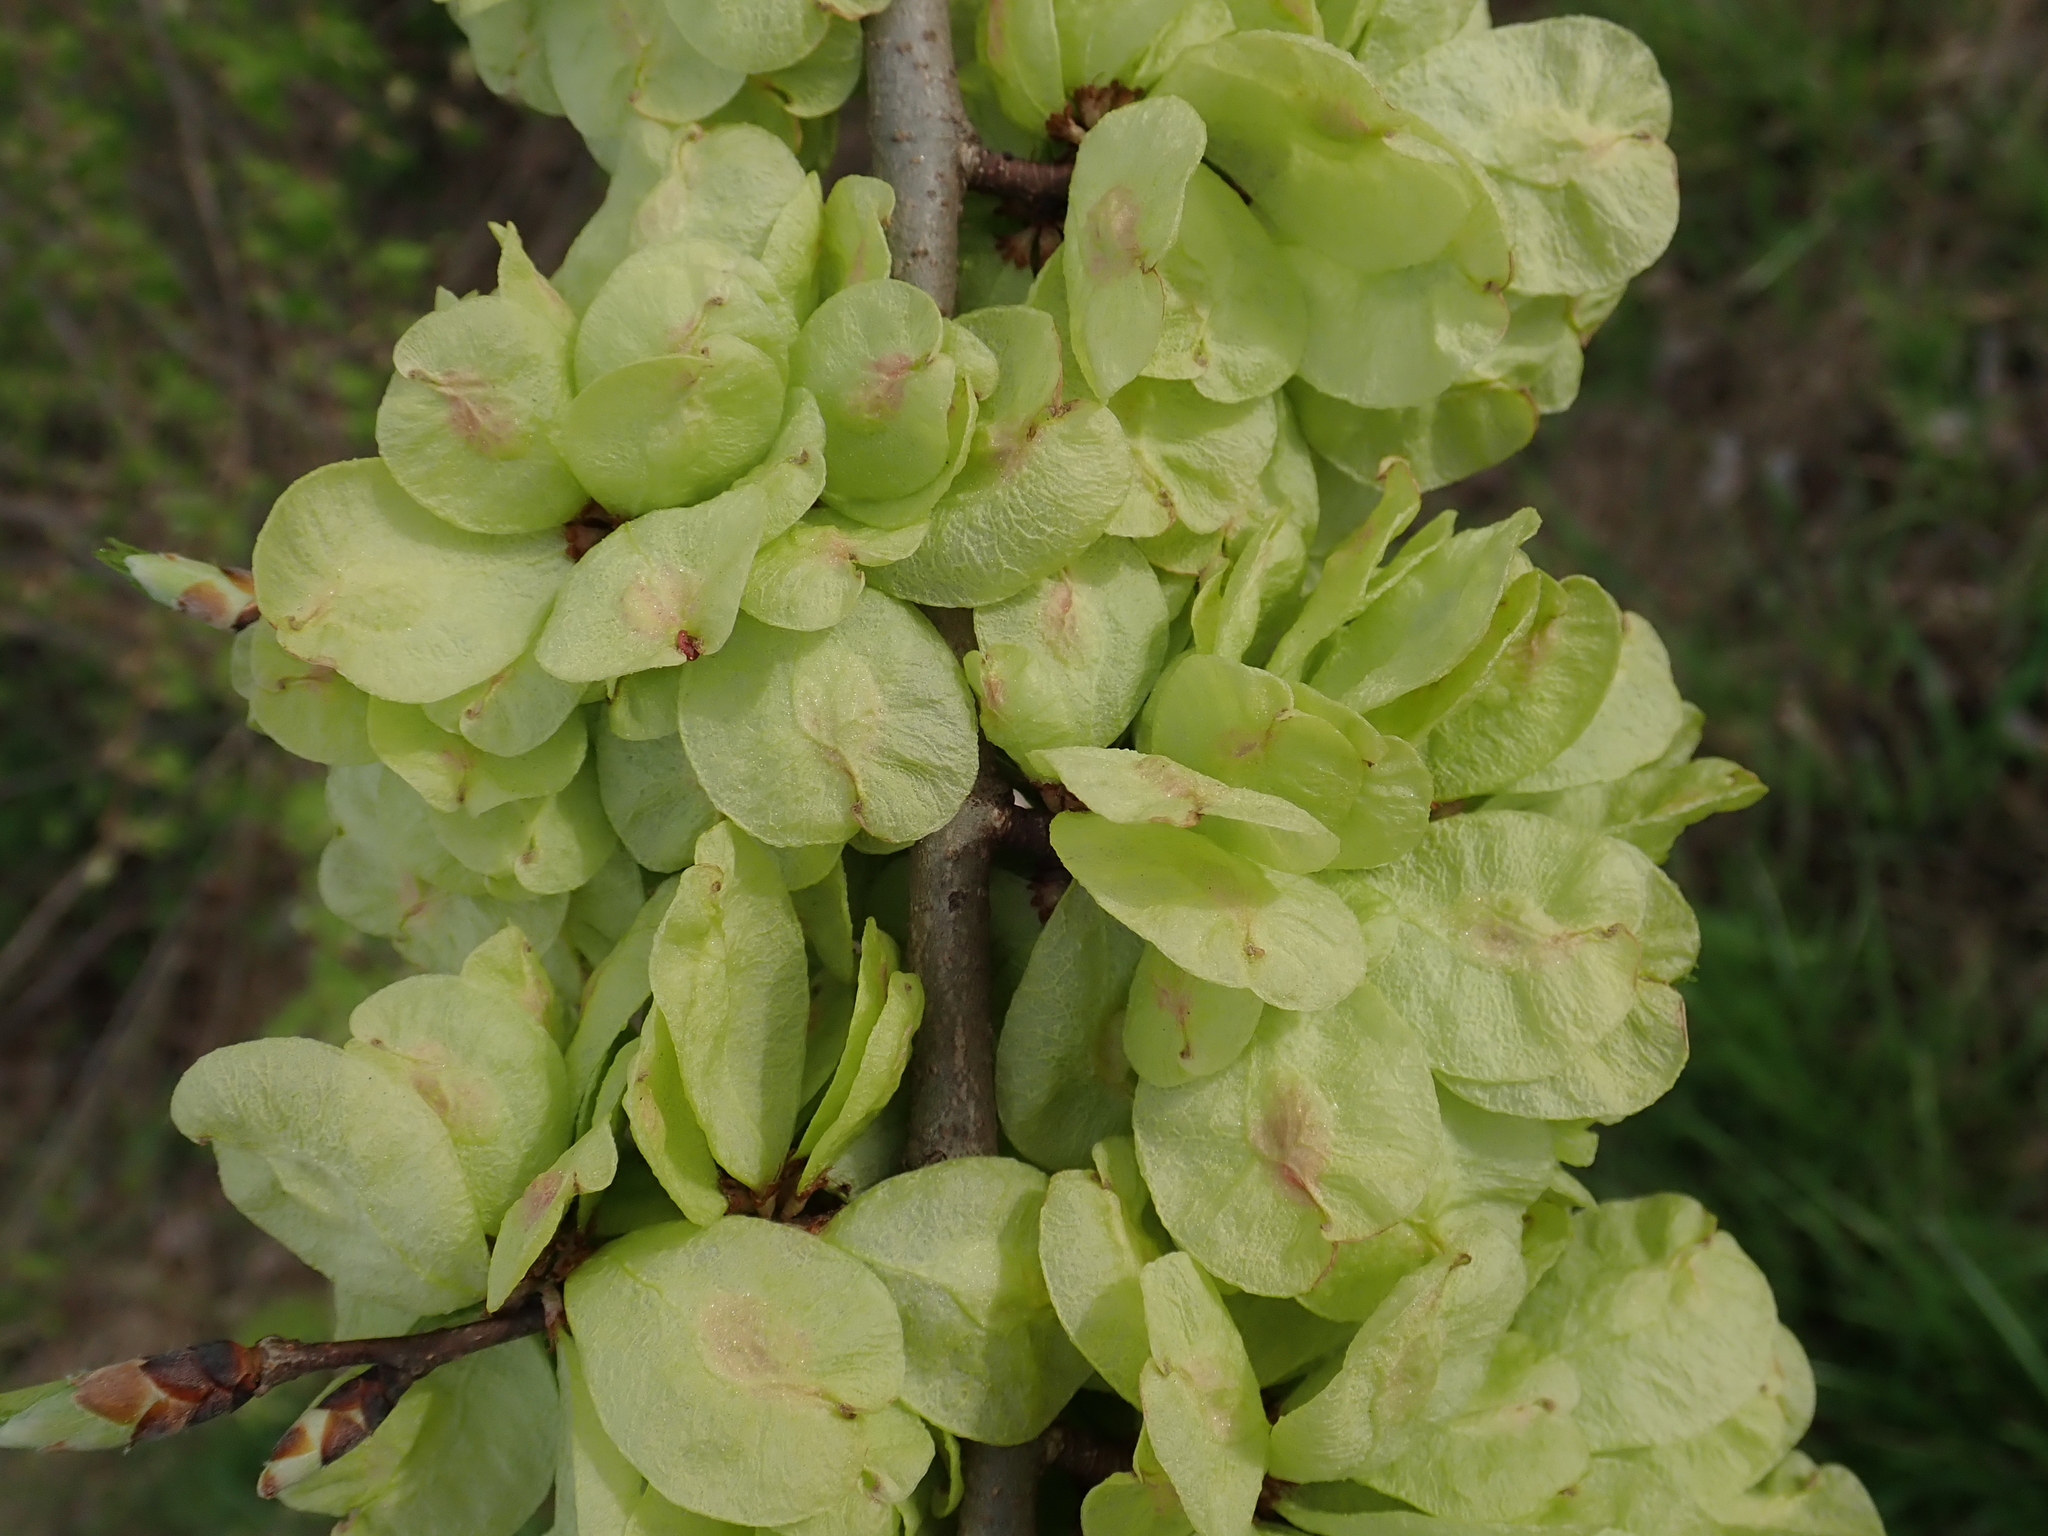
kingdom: Plantae
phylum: Tracheophyta
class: Magnoliopsida
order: Rosales
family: Ulmaceae
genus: Ulmus
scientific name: Ulmus glabra
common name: Wych elm
